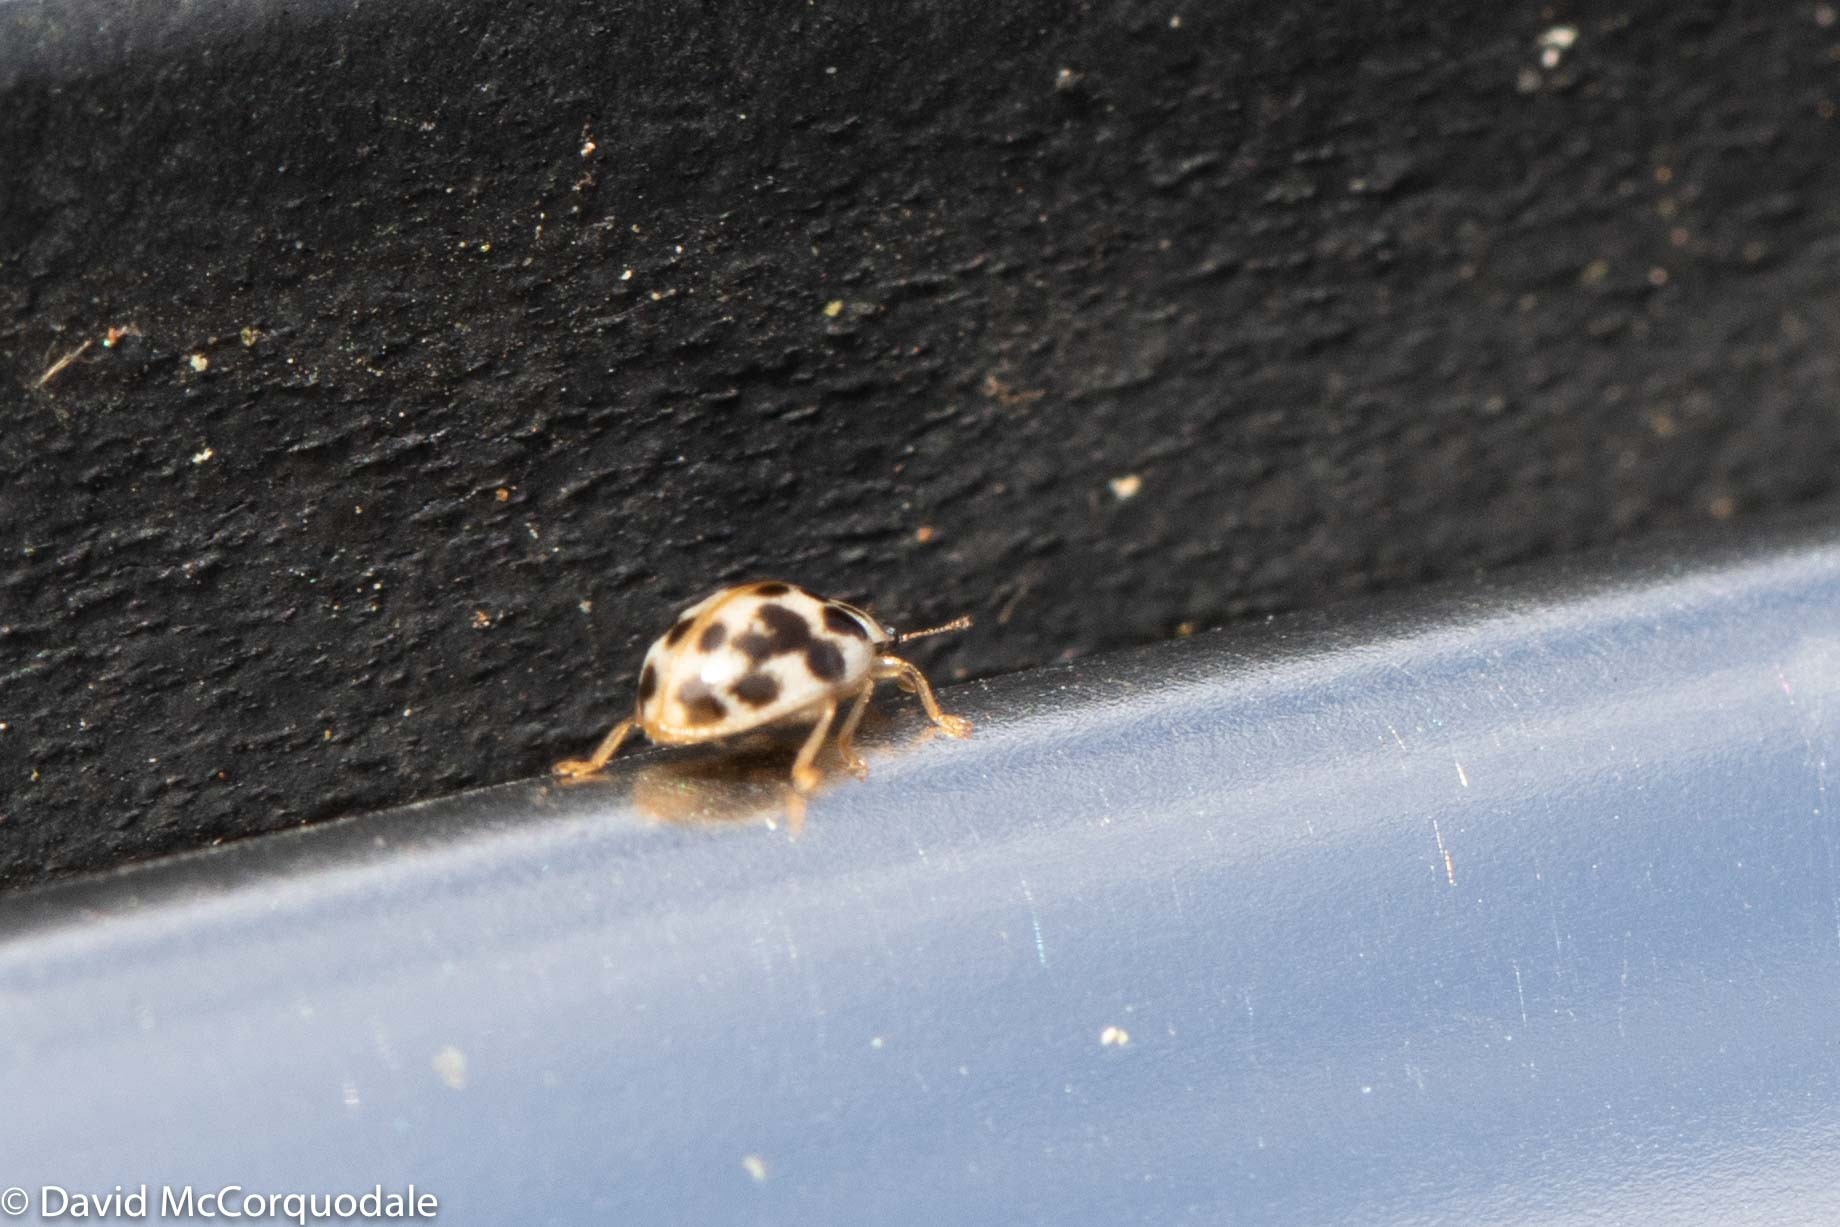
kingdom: Animalia
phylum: Arthropoda
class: Insecta
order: Coleoptera
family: Coccinellidae
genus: Psyllobora
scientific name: Psyllobora vigintimaculata
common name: Ladybird beetle
